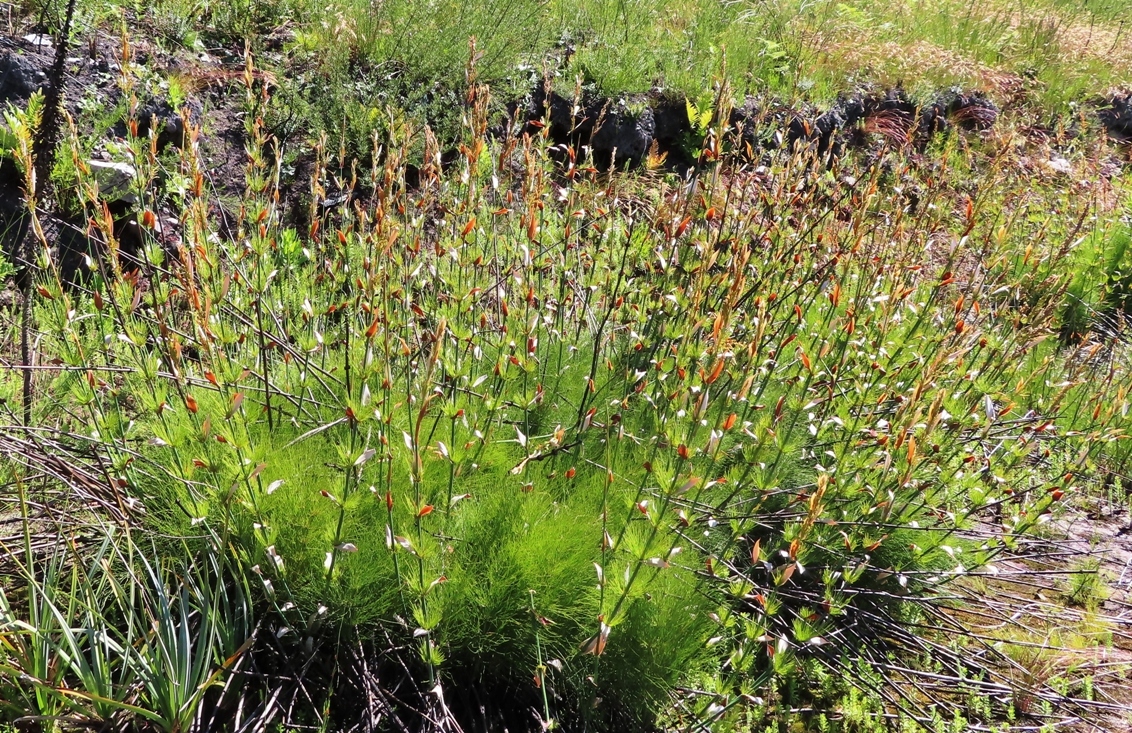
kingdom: Plantae
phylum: Tracheophyta
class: Liliopsida
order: Poales
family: Restionaceae
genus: Elegia
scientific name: Elegia capensis
